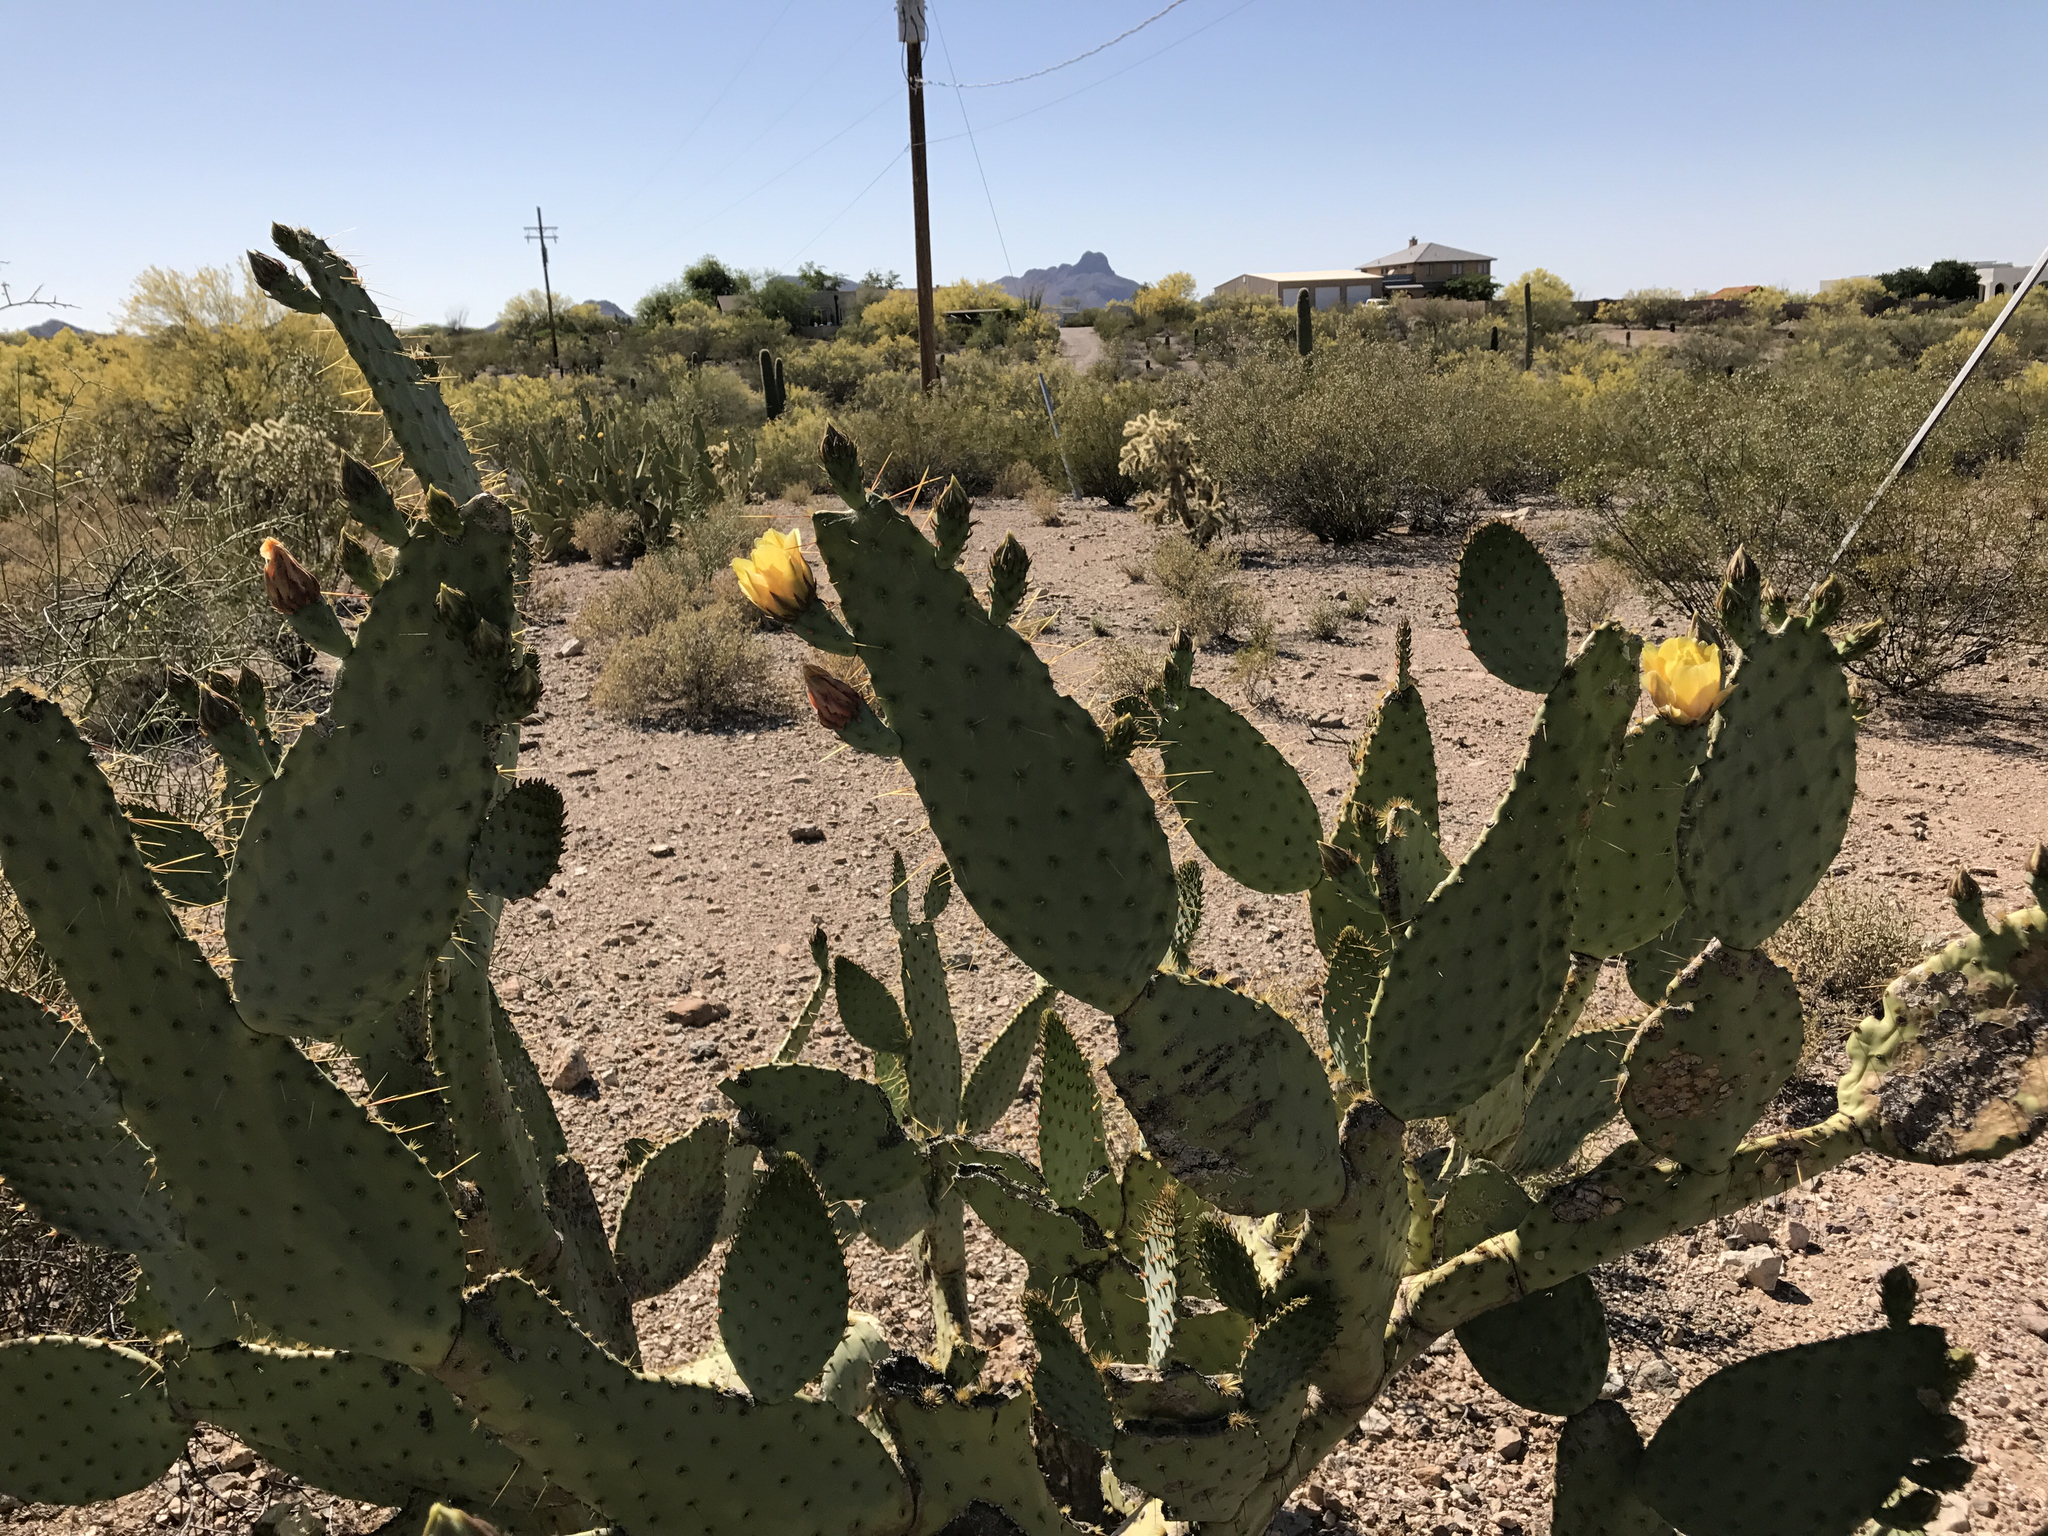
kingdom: Plantae
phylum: Tracheophyta
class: Magnoliopsida
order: Caryophyllales
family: Cactaceae
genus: Opuntia
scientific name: Opuntia engelmannii
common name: Cactus-apple
